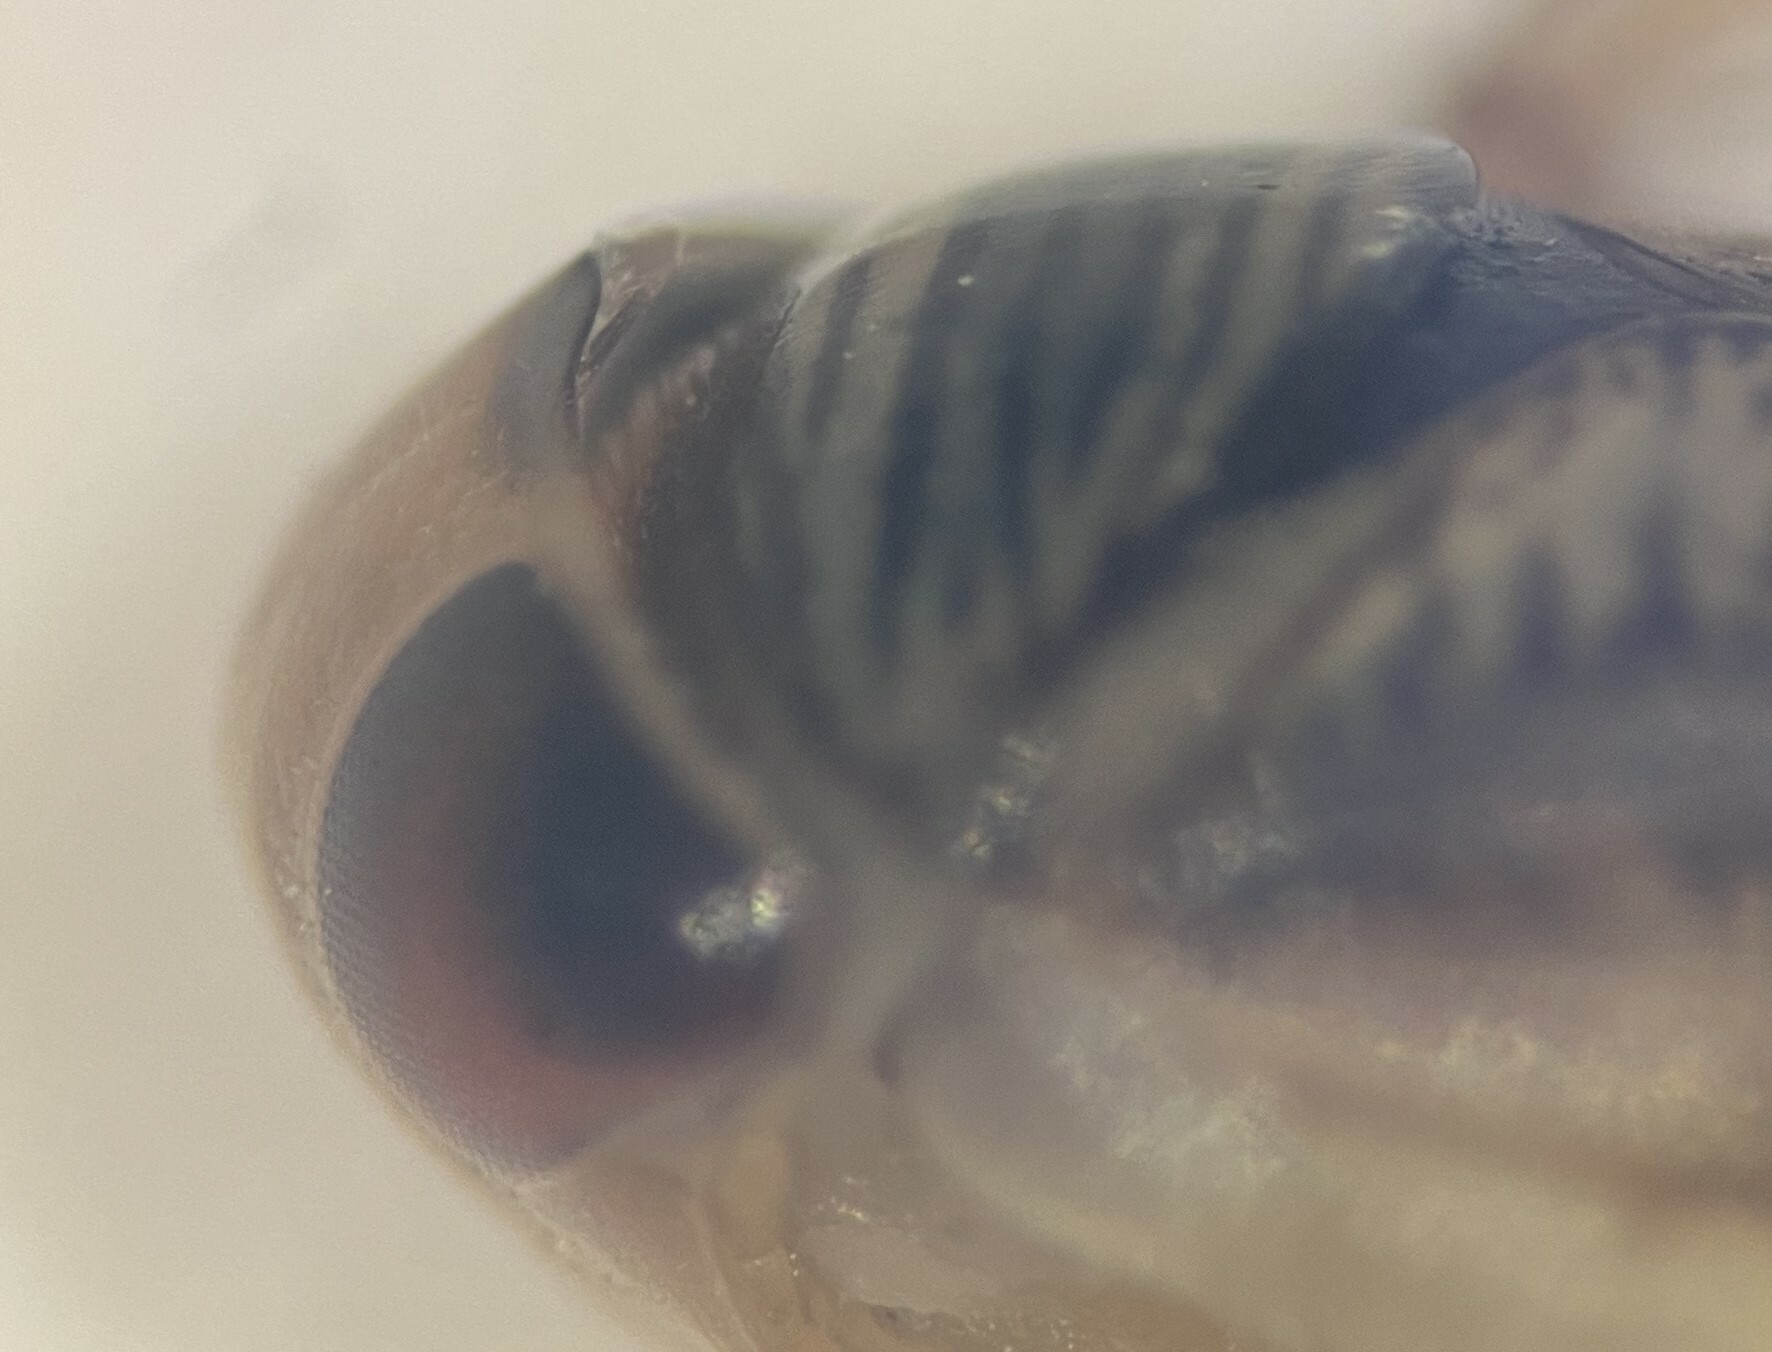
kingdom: Animalia
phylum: Arthropoda
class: Insecta
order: Hemiptera
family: Corixidae
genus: Corisella
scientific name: Corisella decolor
